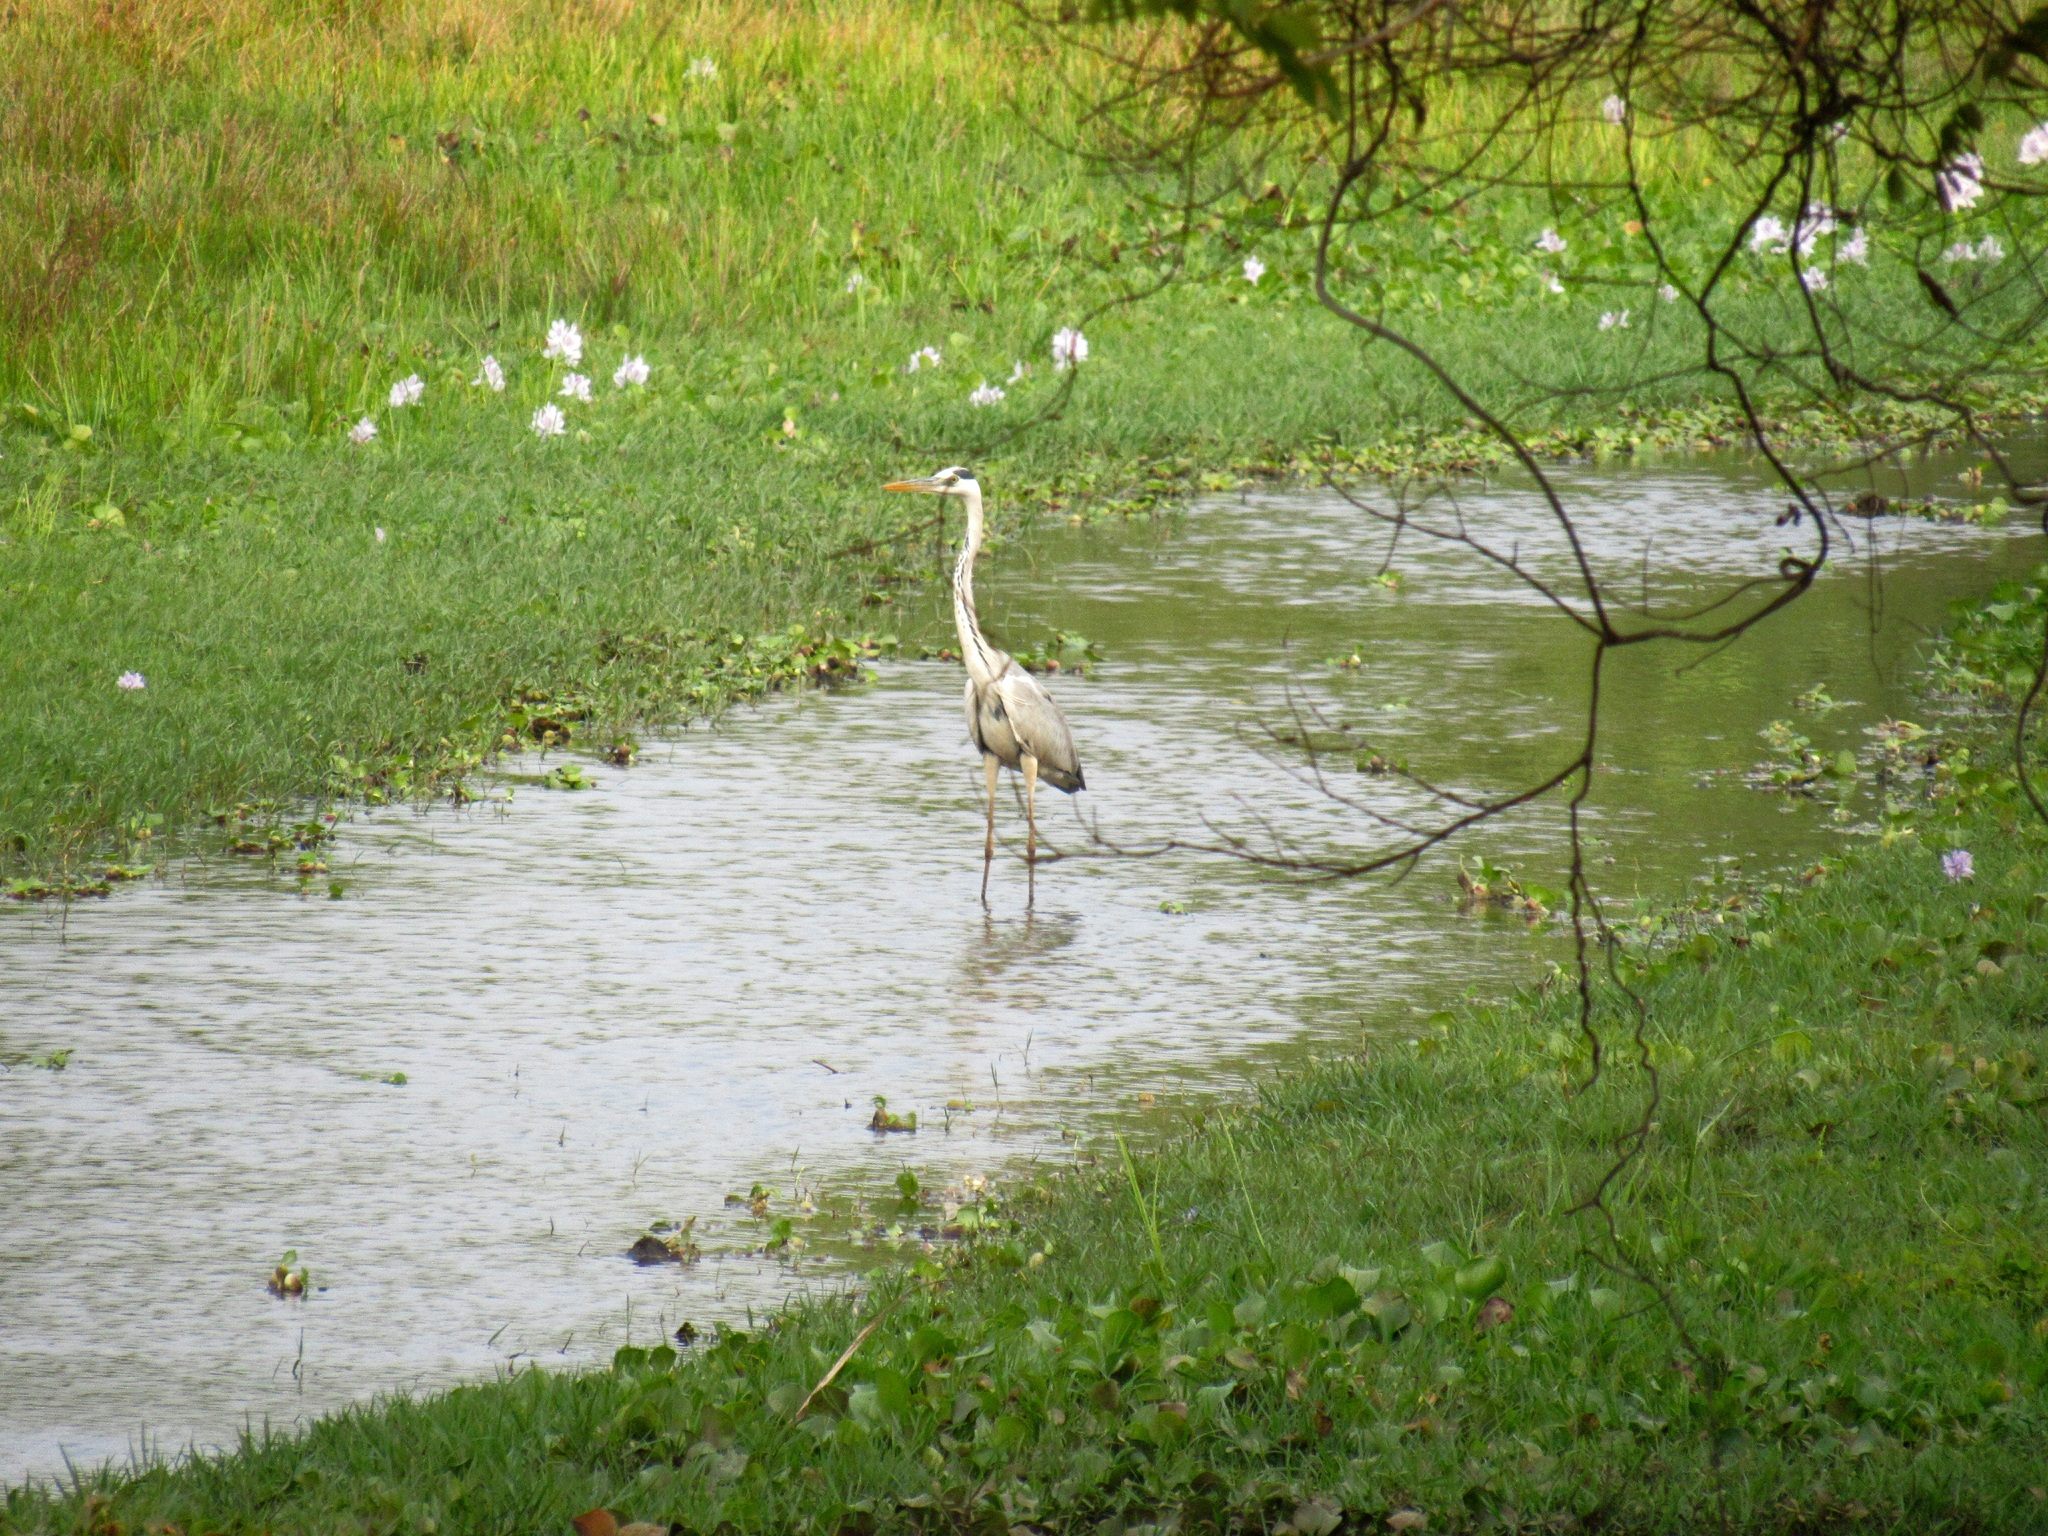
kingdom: Animalia
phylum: Chordata
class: Aves
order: Pelecaniformes
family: Ardeidae
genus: Ardea
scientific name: Ardea cinerea
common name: Grey heron
